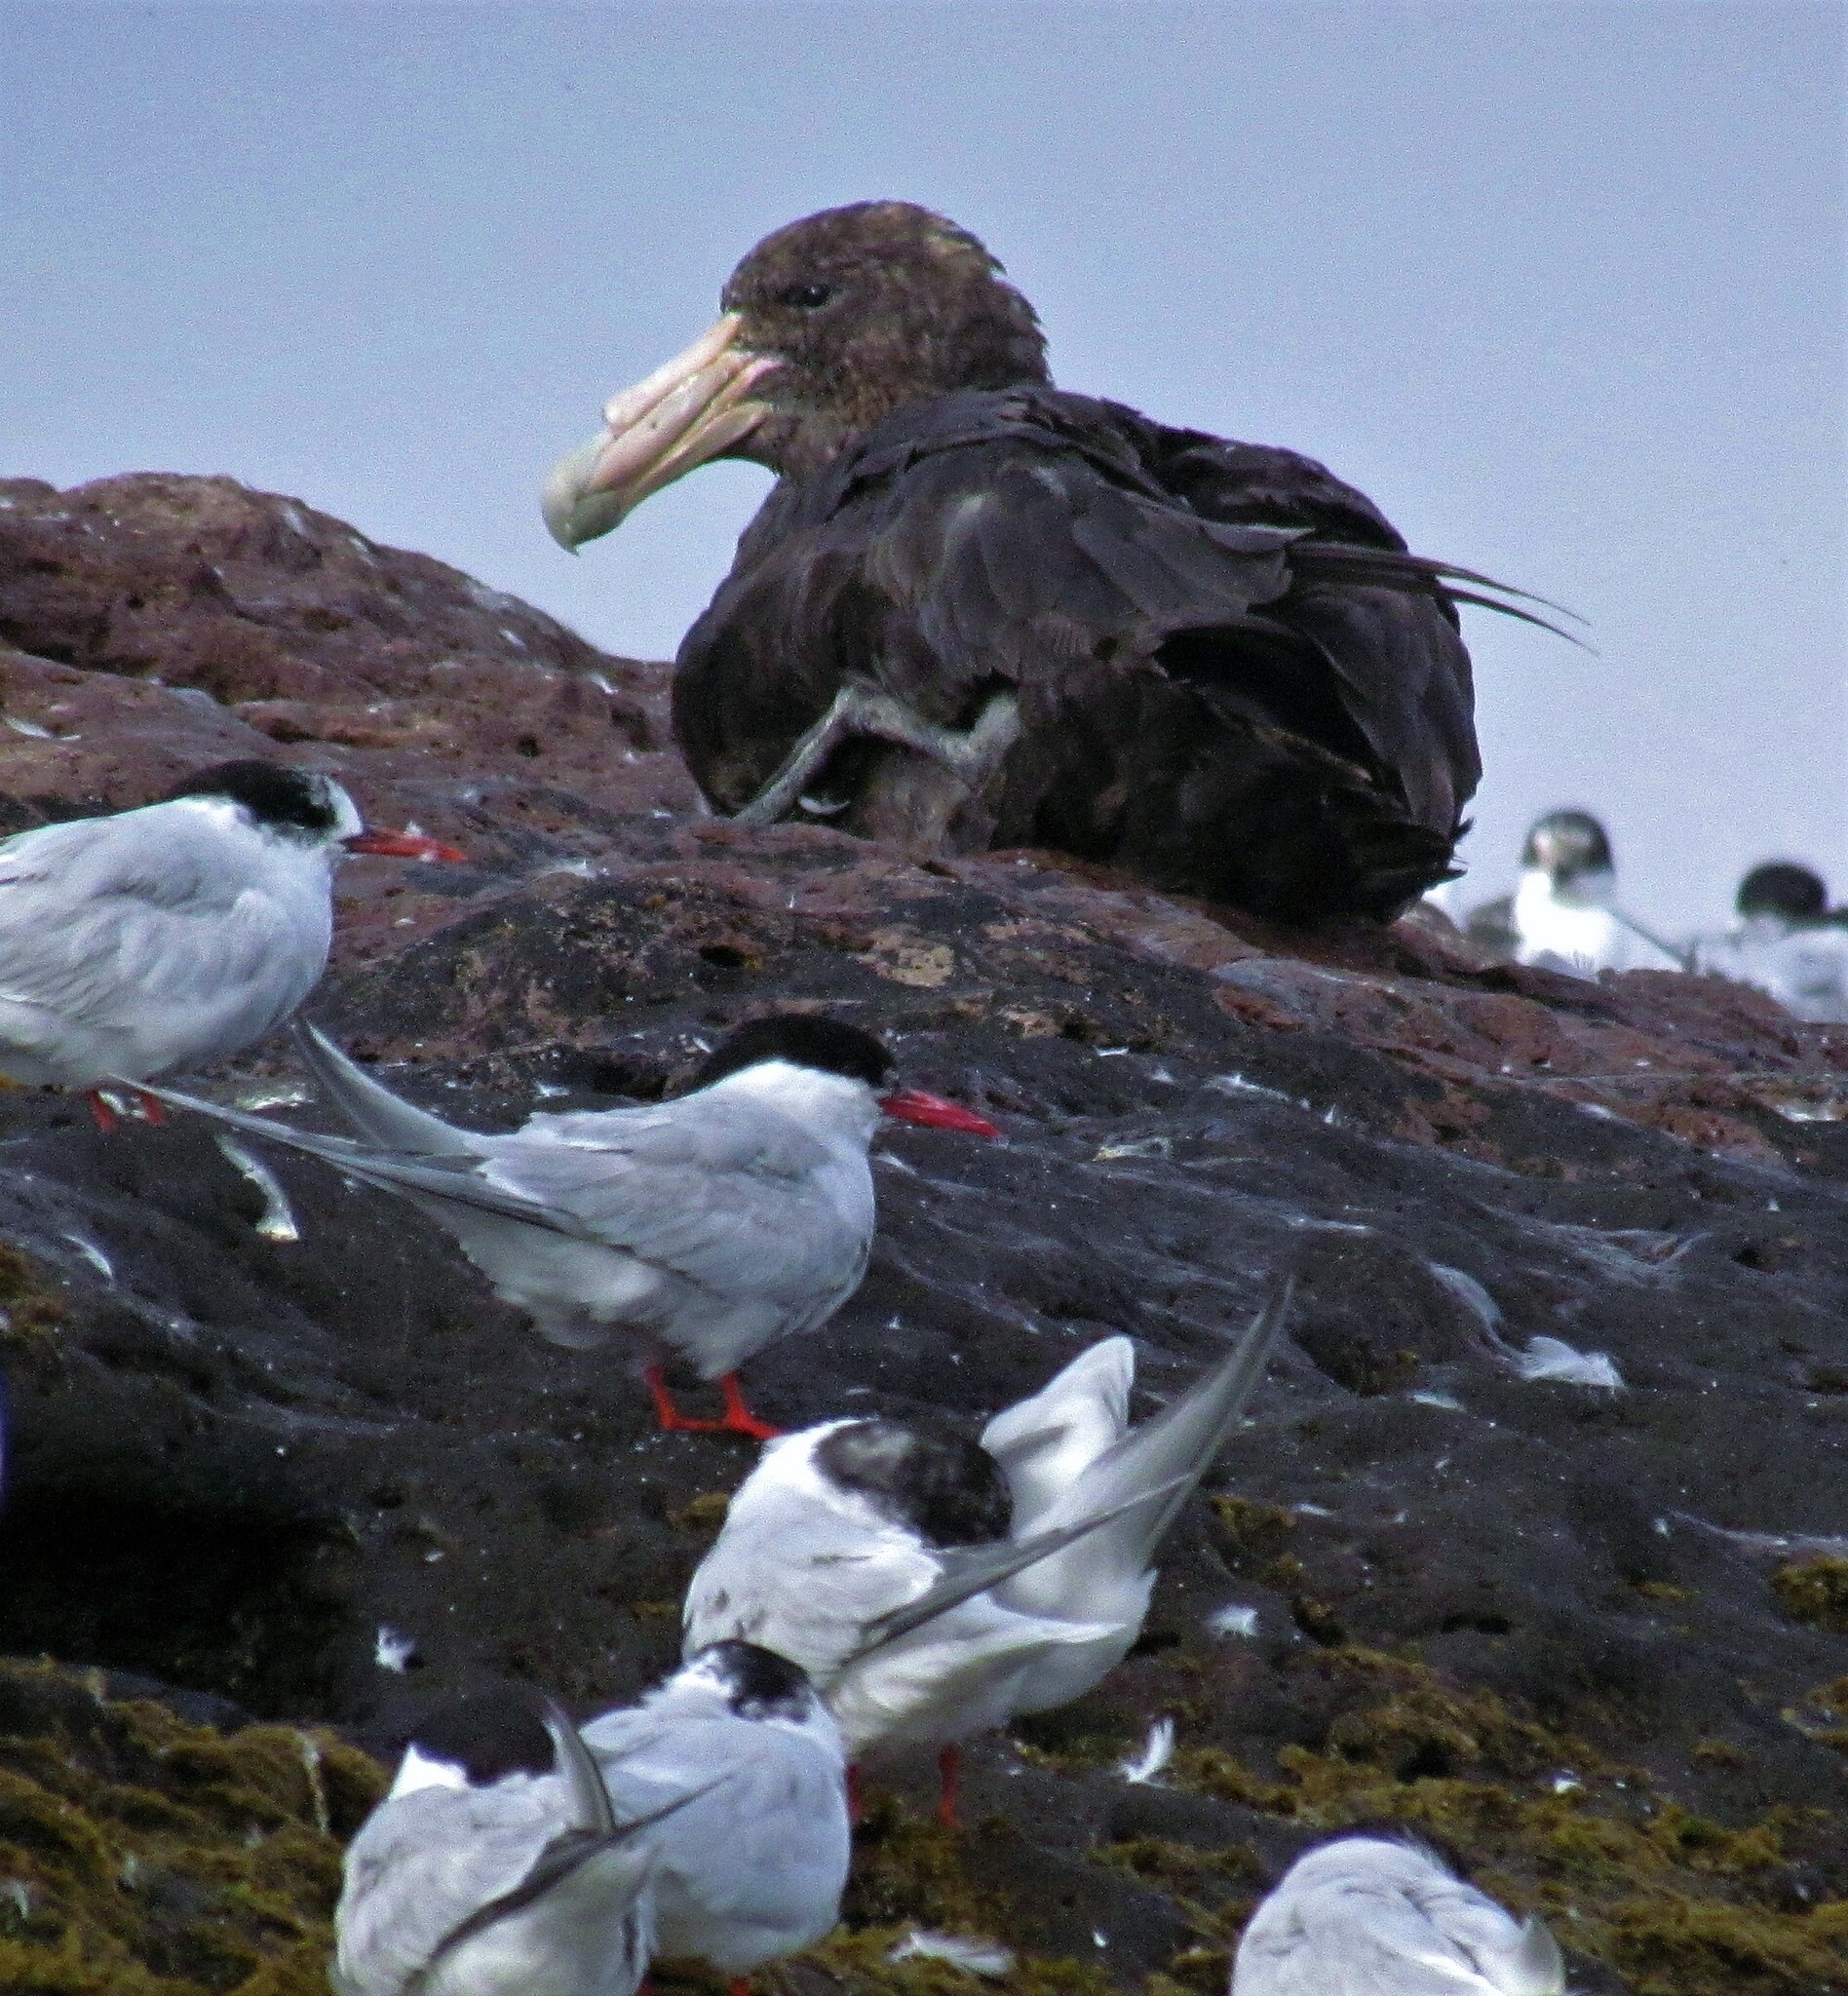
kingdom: Animalia
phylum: Chordata
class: Aves
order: Procellariiformes
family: Procellariidae
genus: Macronectes
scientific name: Macronectes giganteus
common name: Southern giant petrel
